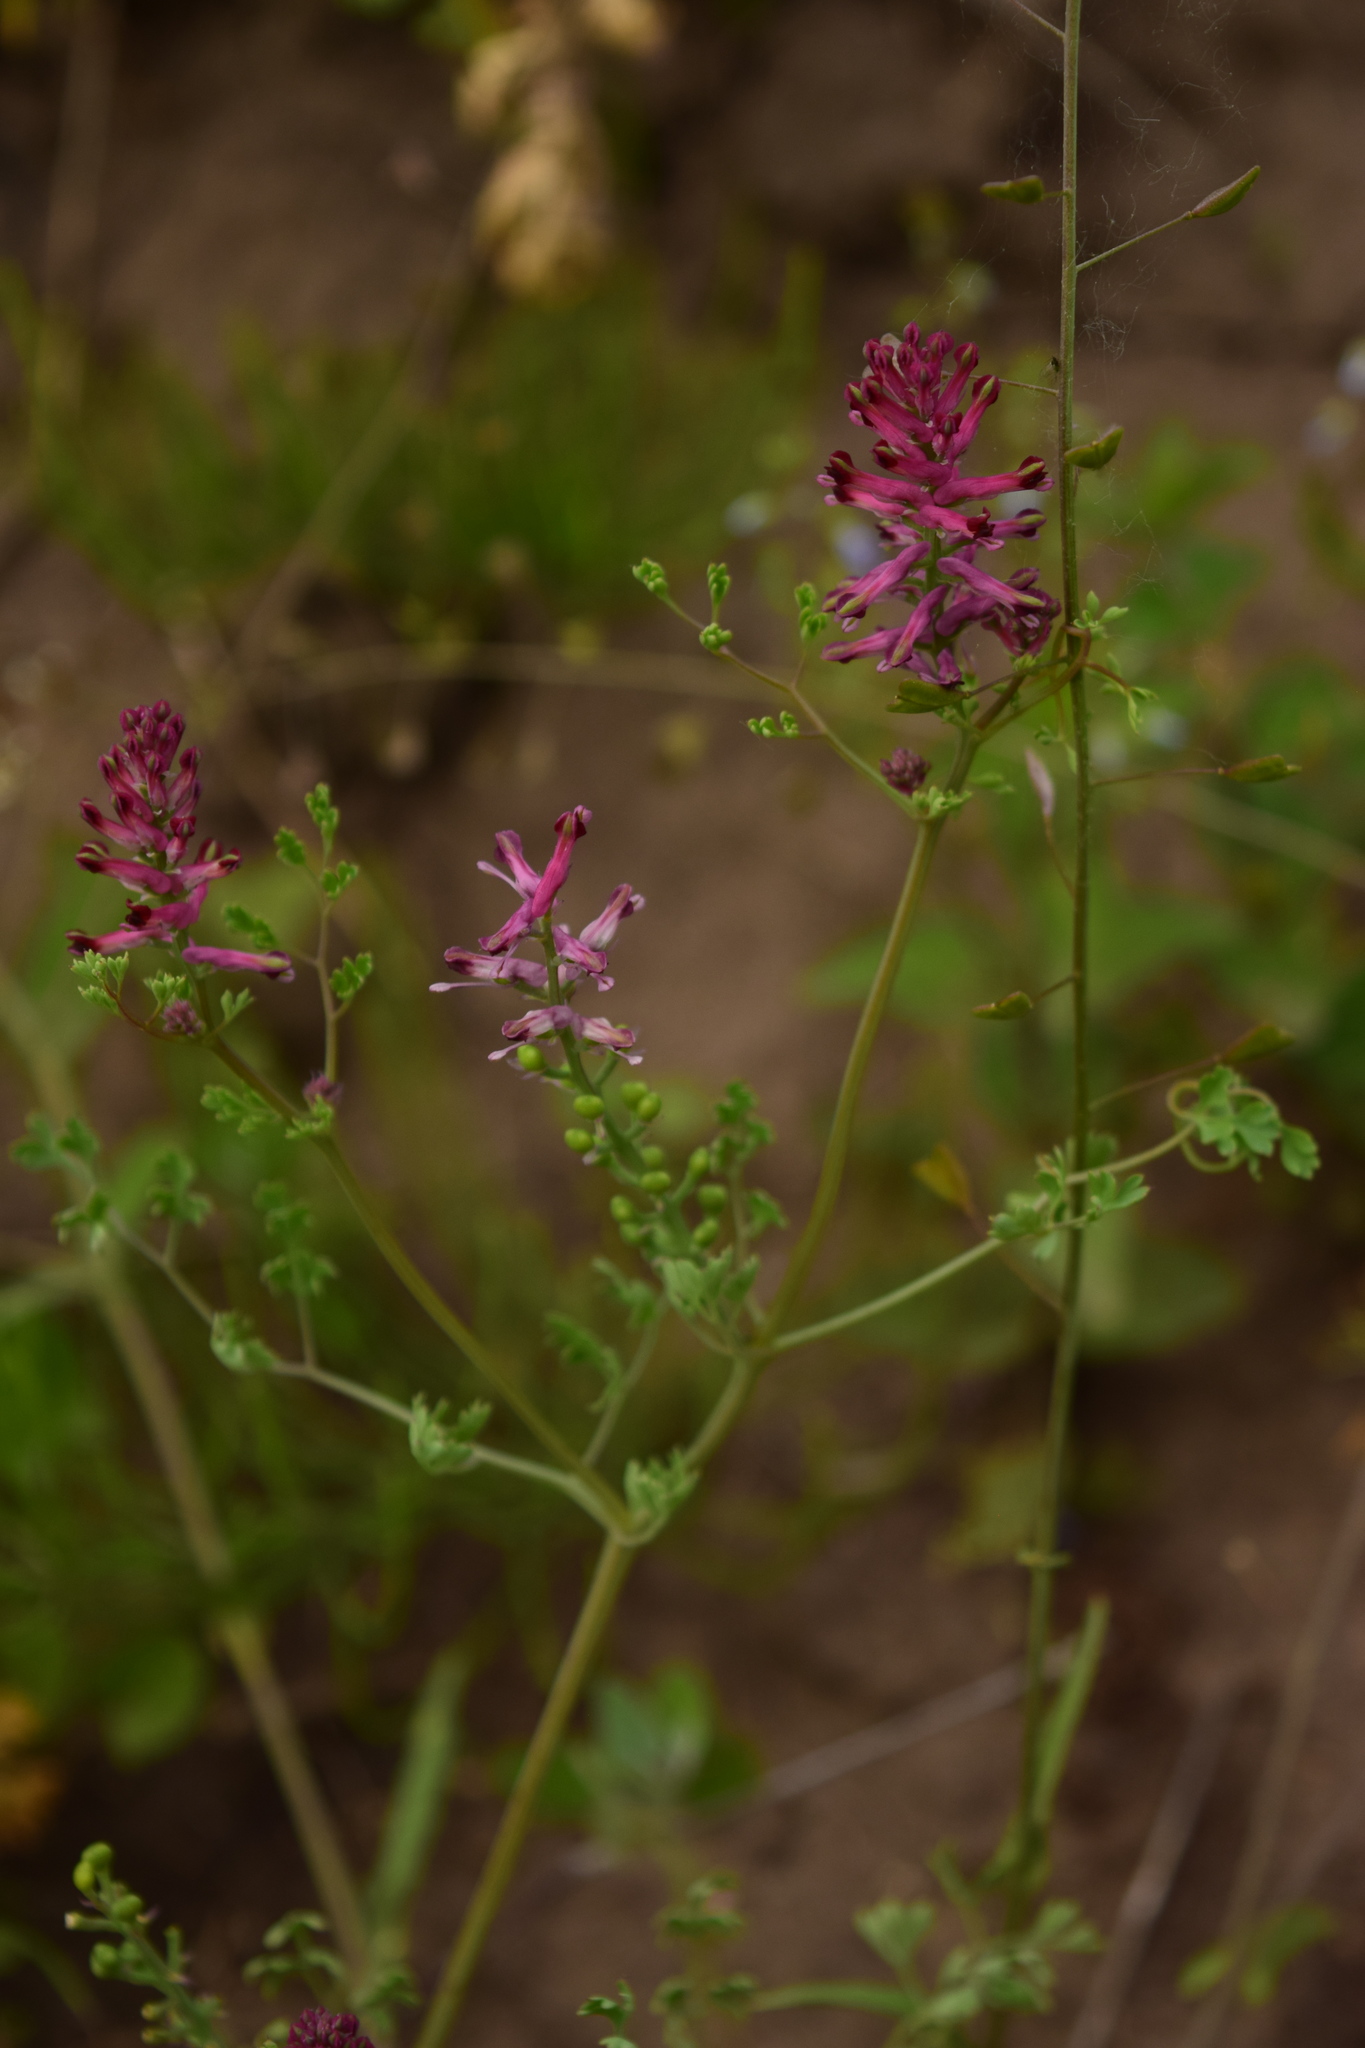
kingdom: Plantae
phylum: Tracheophyta
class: Magnoliopsida
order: Ranunculales
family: Papaveraceae
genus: Fumaria
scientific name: Fumaria officinalis
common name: Common fumitory
